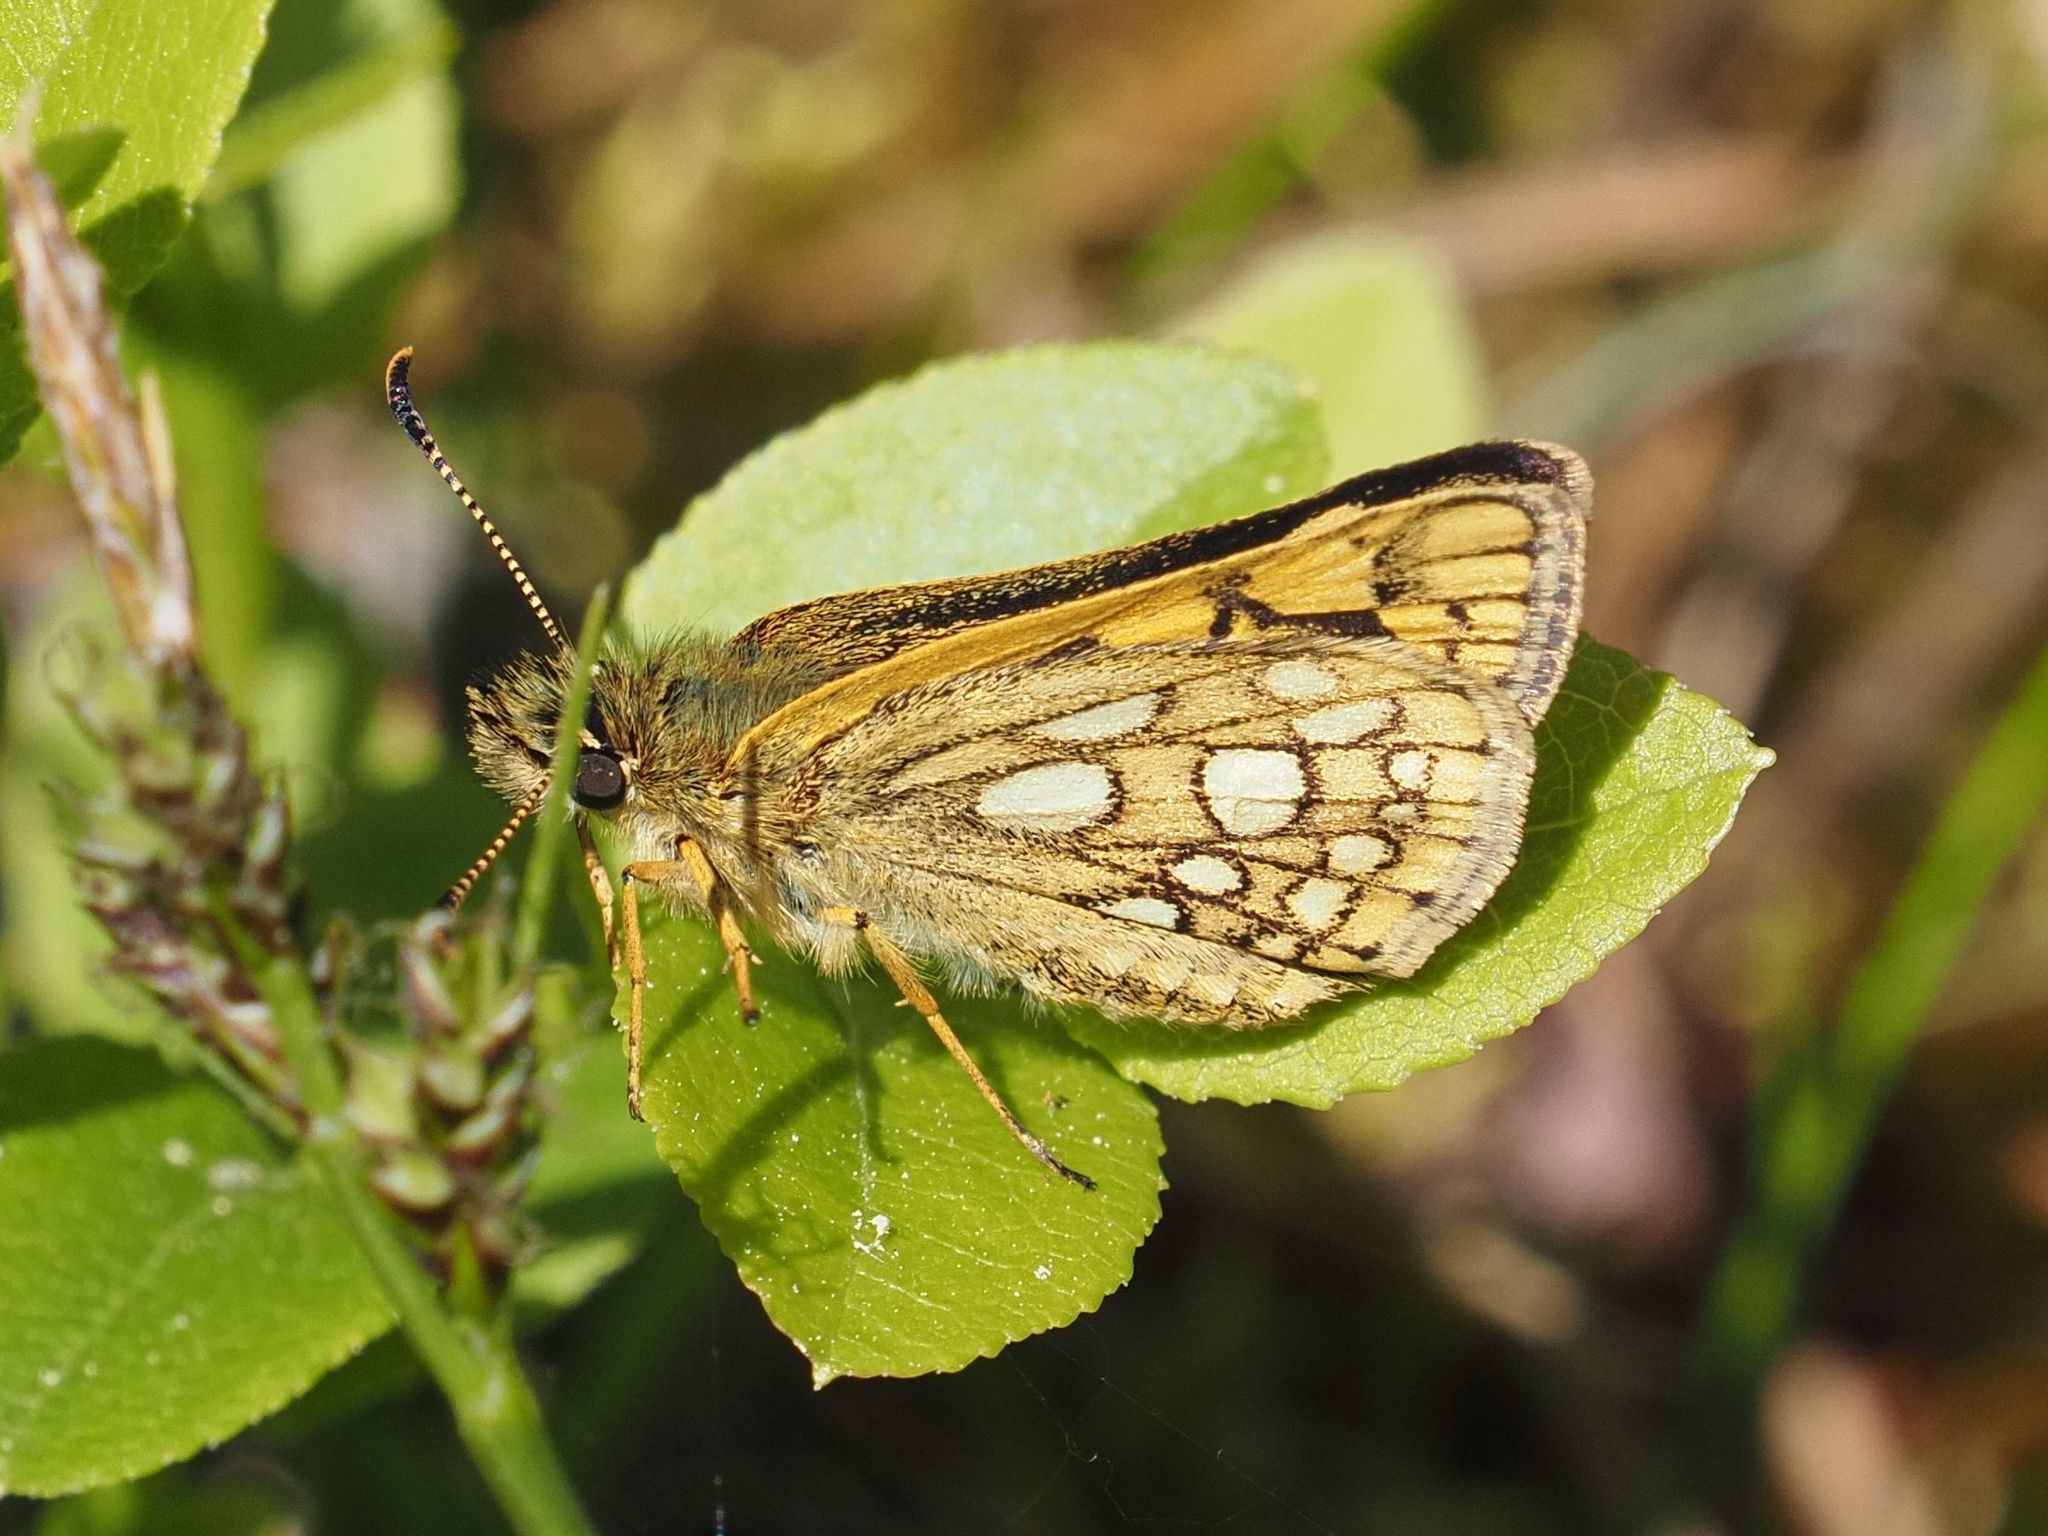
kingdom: Animalia
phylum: Arthropoda
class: Insecta
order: Lepidoptera
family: Hesperiidae
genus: Carterocephalus
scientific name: Carterocephalus palaemon
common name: Chequered skipper
